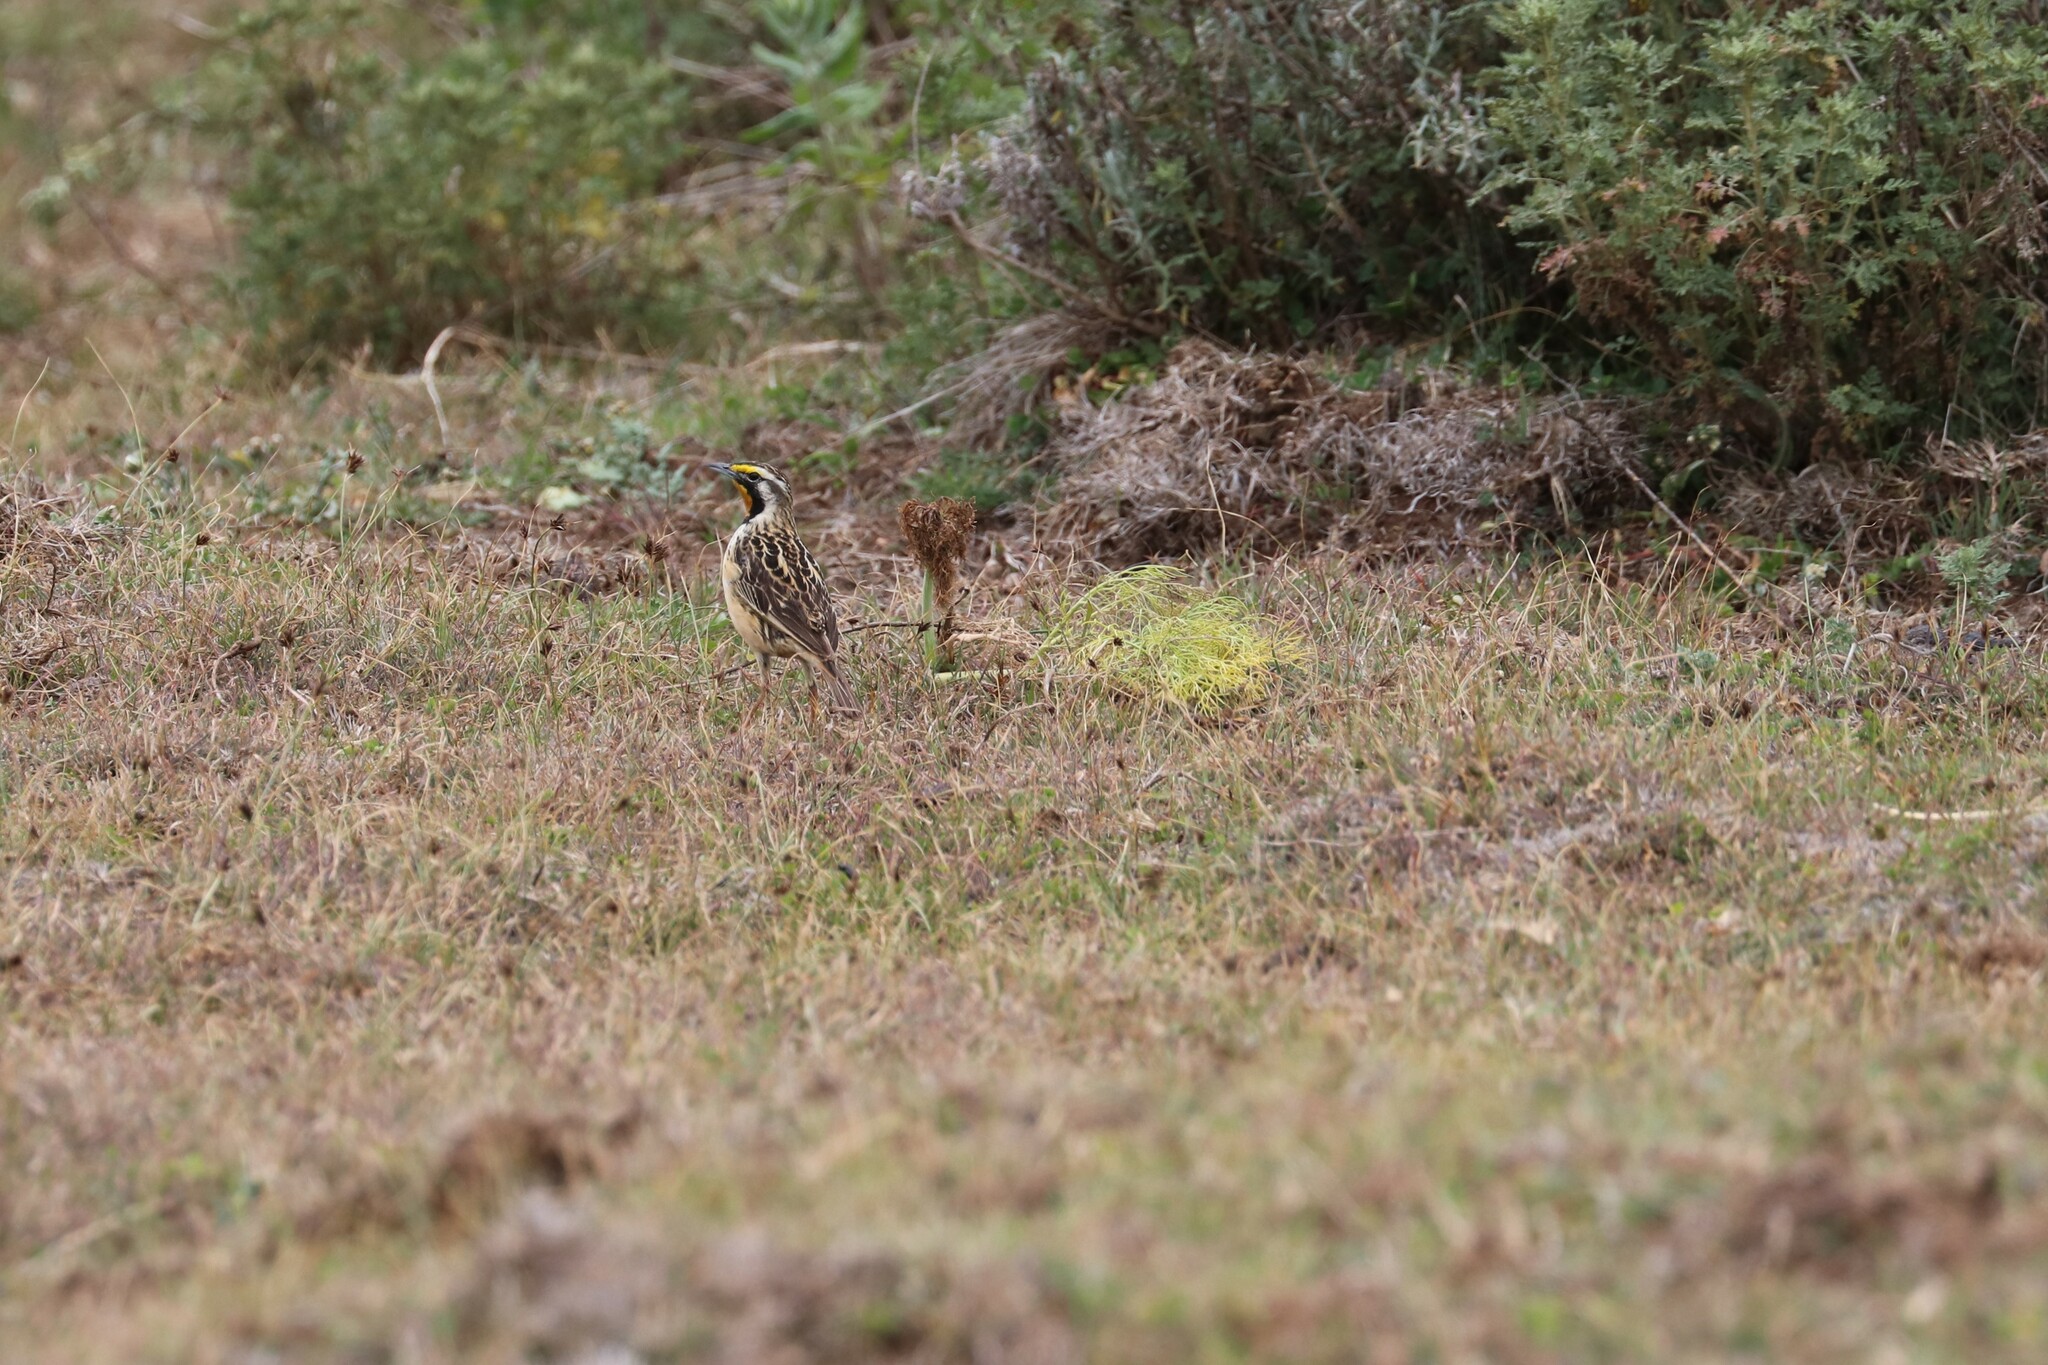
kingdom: Animalia
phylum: Chordata
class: Aves
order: Passeriformes
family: Motacillidae
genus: Macronyx
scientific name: Macronyx flavicollis
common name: Abyssinian longclaw
